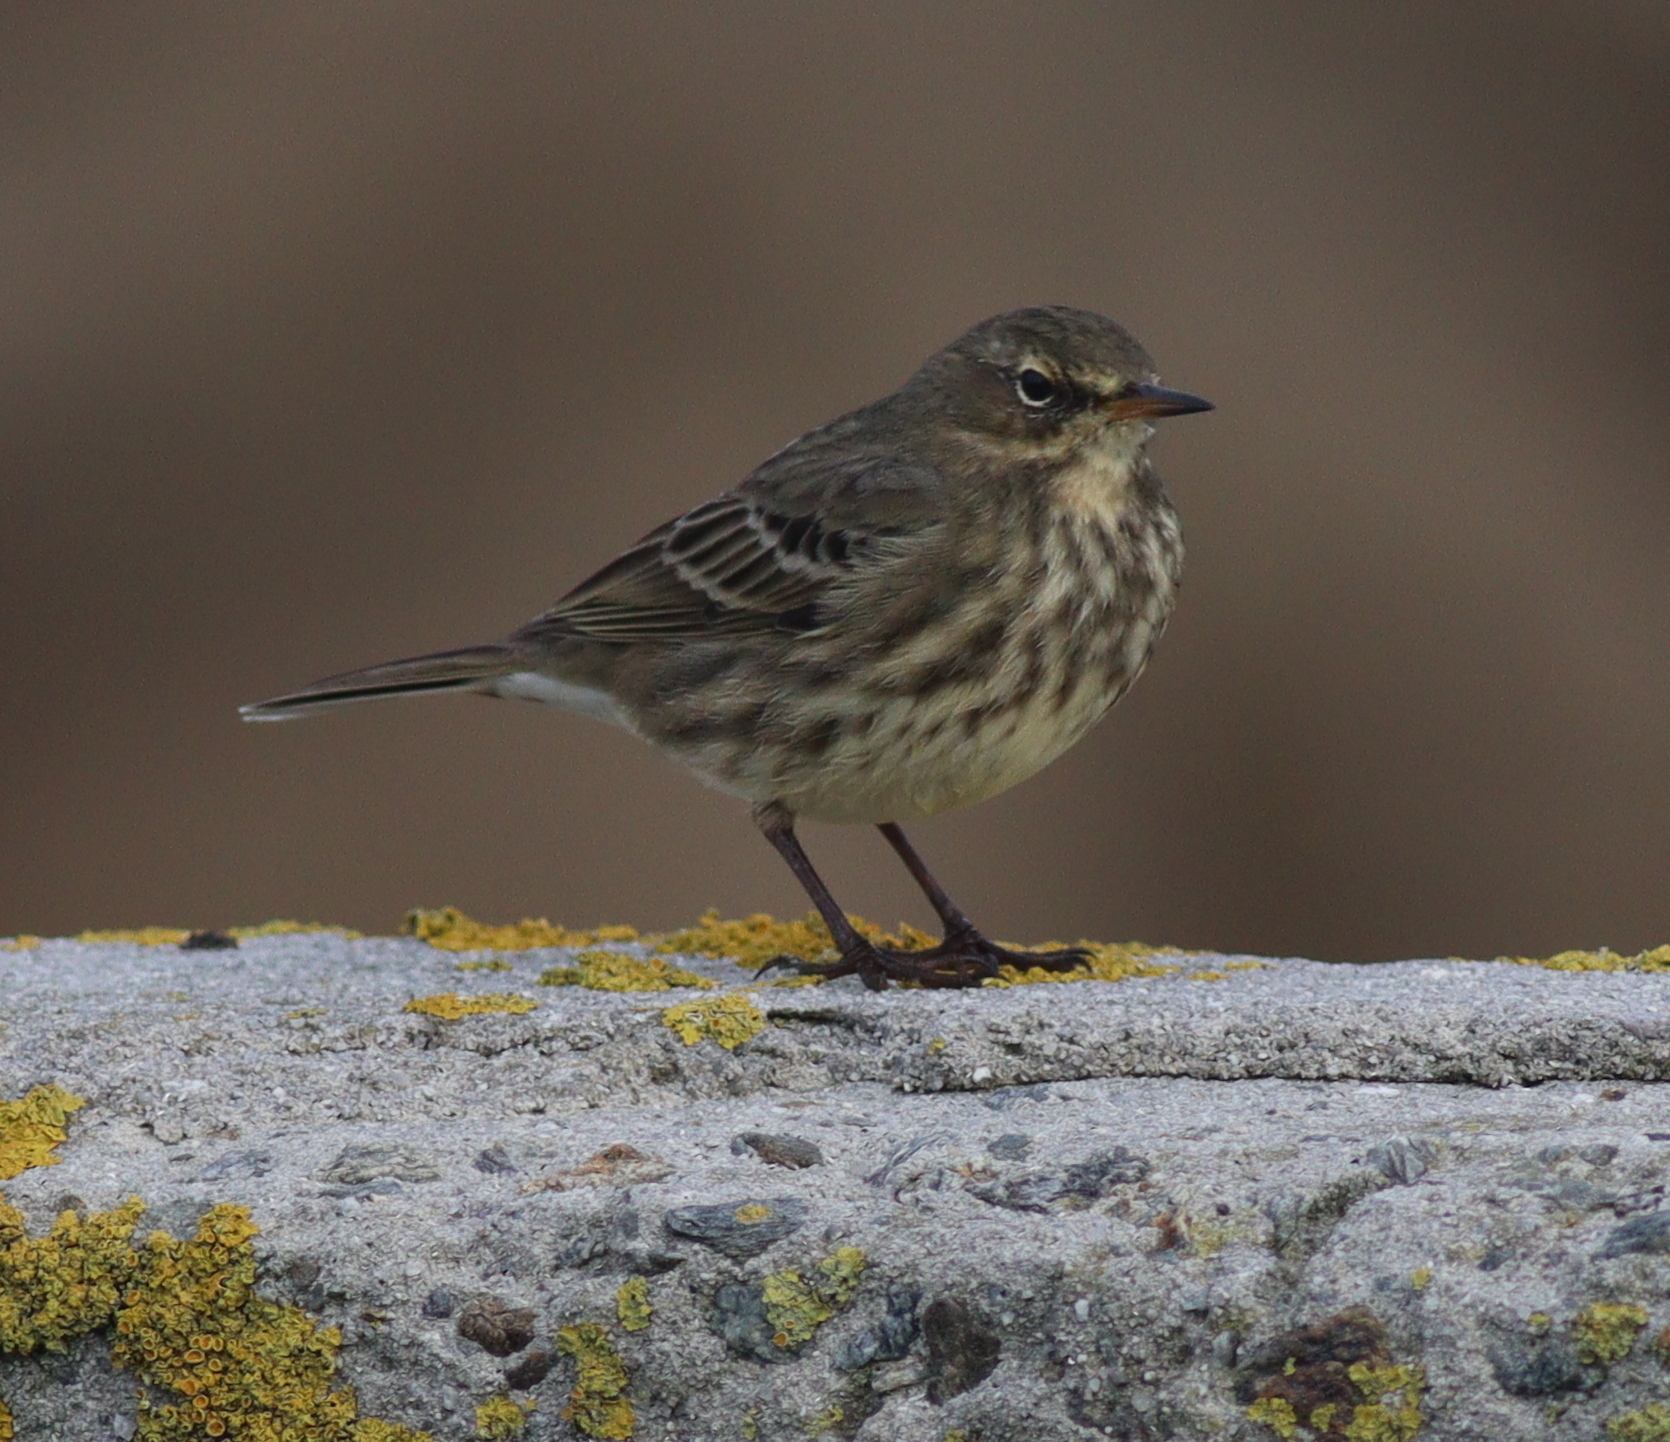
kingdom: Animalia
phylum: Chordata
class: Aves
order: Passeriformes
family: Motacillidae
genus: Anthus
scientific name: Anthus petrosus
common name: Eurasian rock pipit
